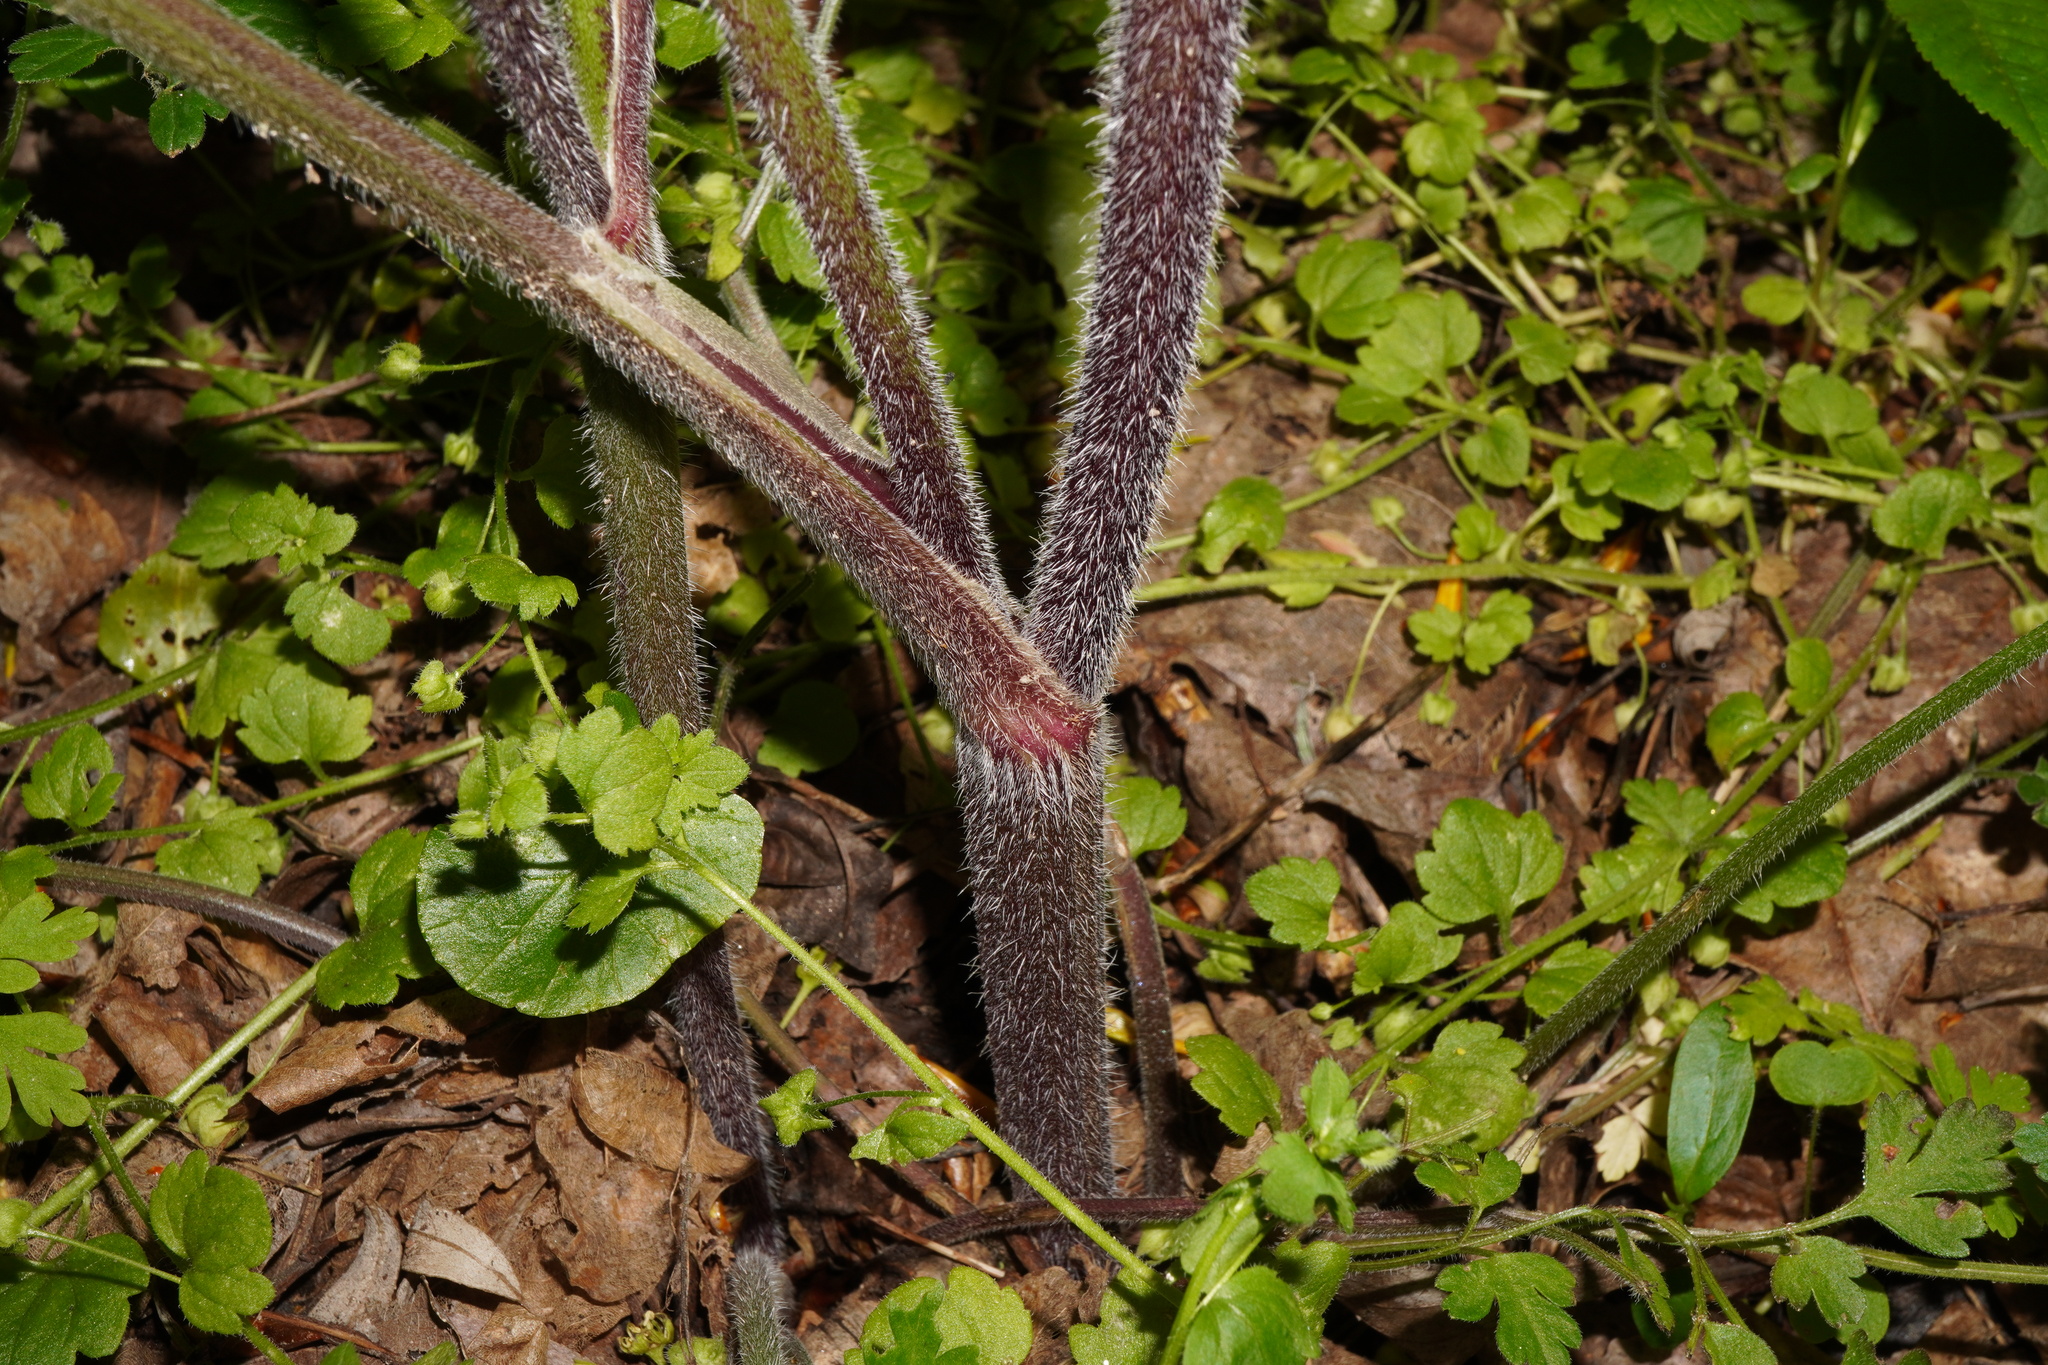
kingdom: Plantae
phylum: Tracheophyta
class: Magnoliopsida
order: Apiales
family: Apiaceae
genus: Chaerophyllum
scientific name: Chaerophyllum temulum
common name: Rough chervil
